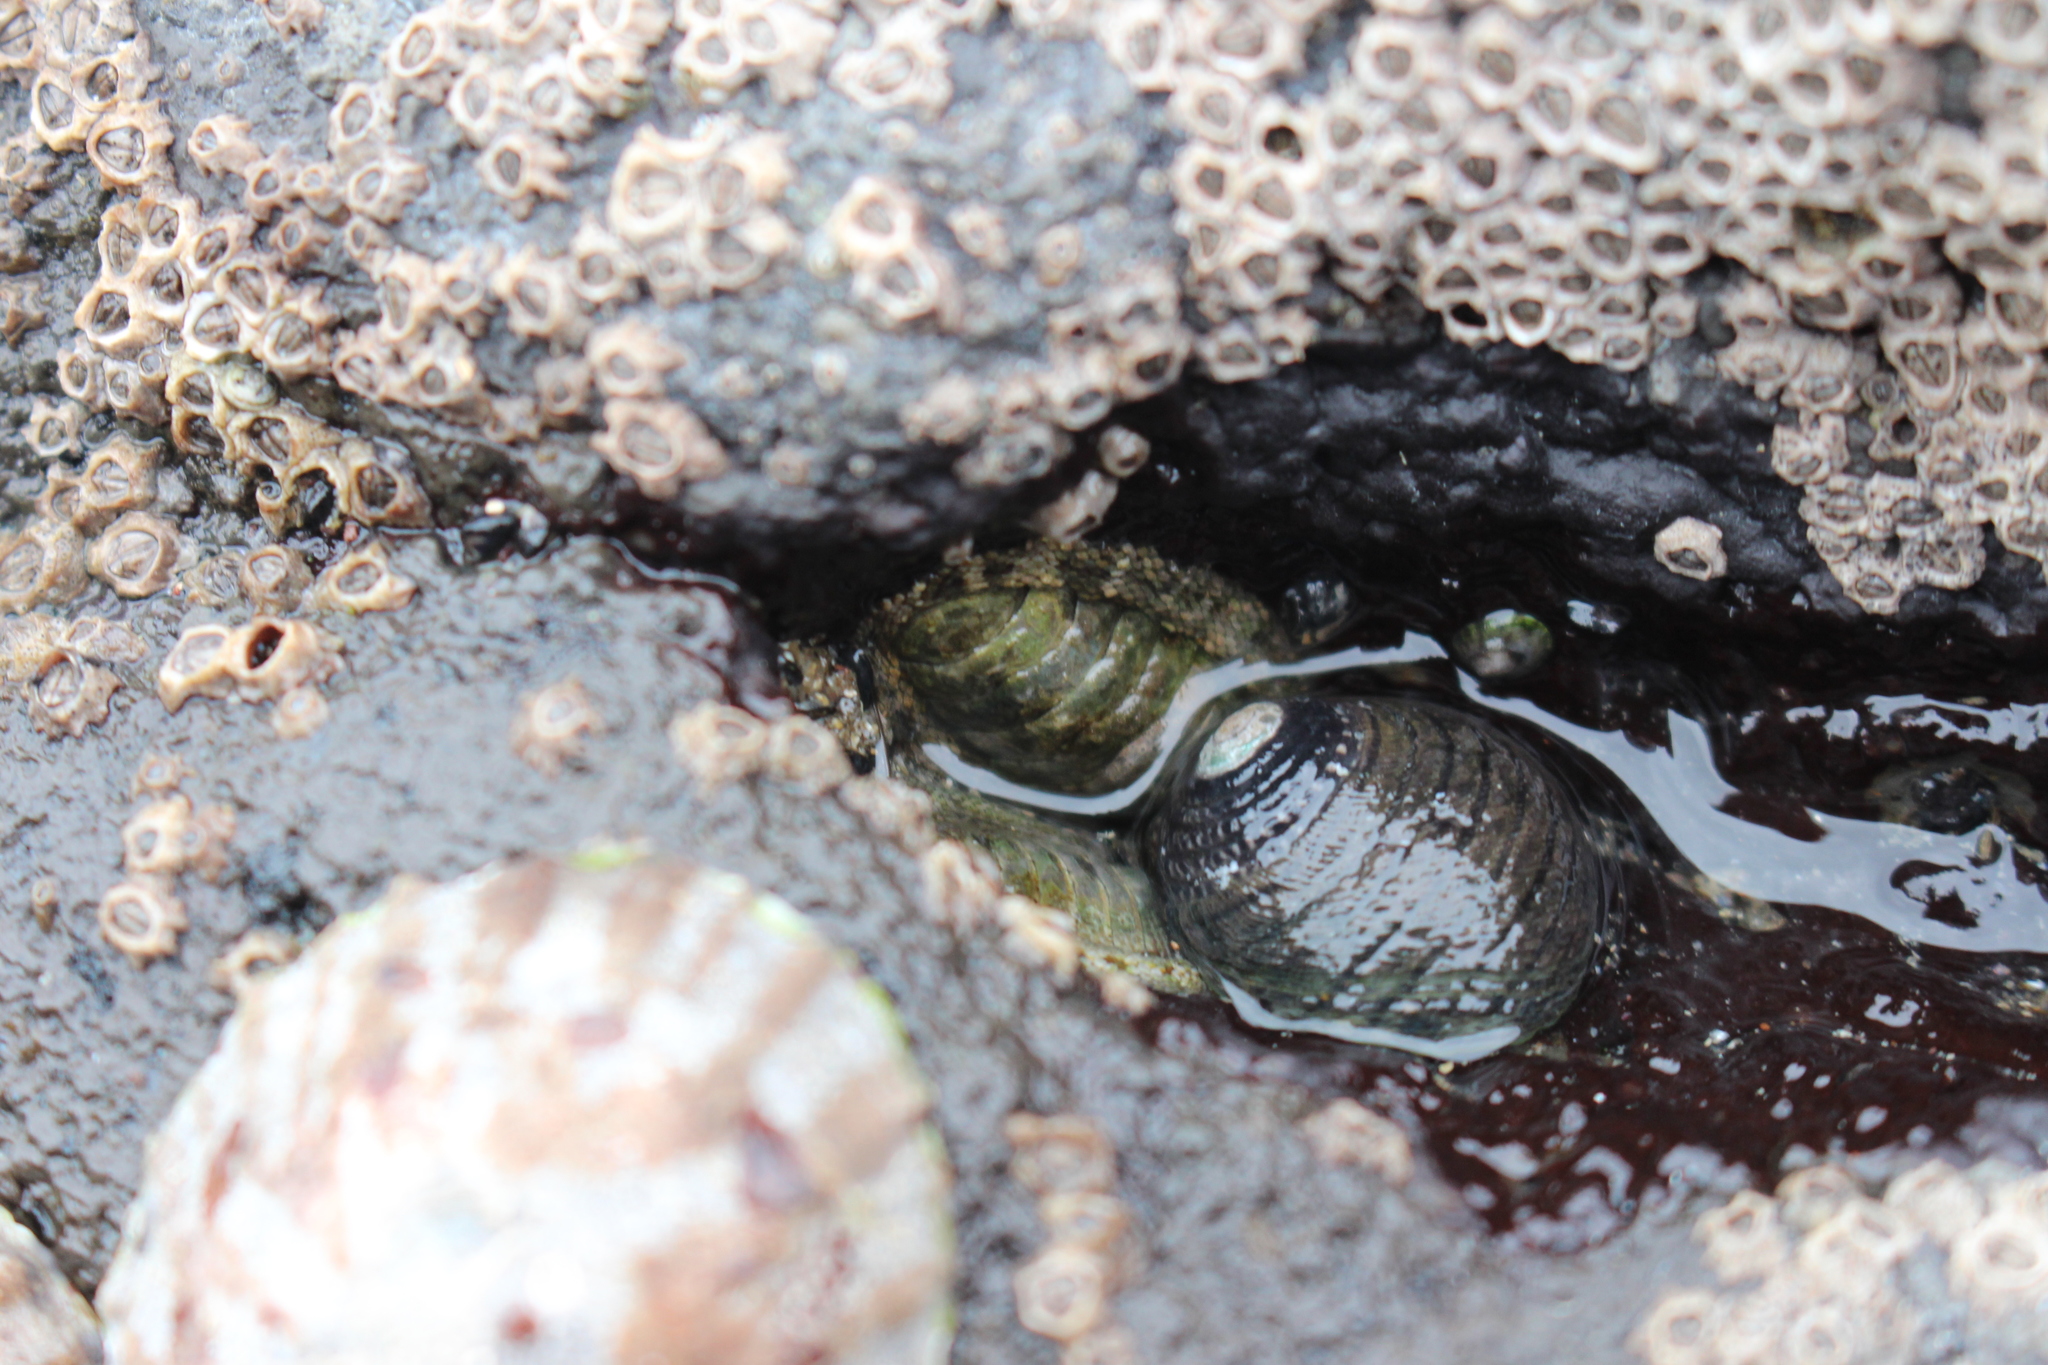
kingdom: Animalia
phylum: Mollusca
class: Gastropoda
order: Trochida
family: Trochidae
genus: Diloma
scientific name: Diloma aethiops
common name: Scorched monodont
